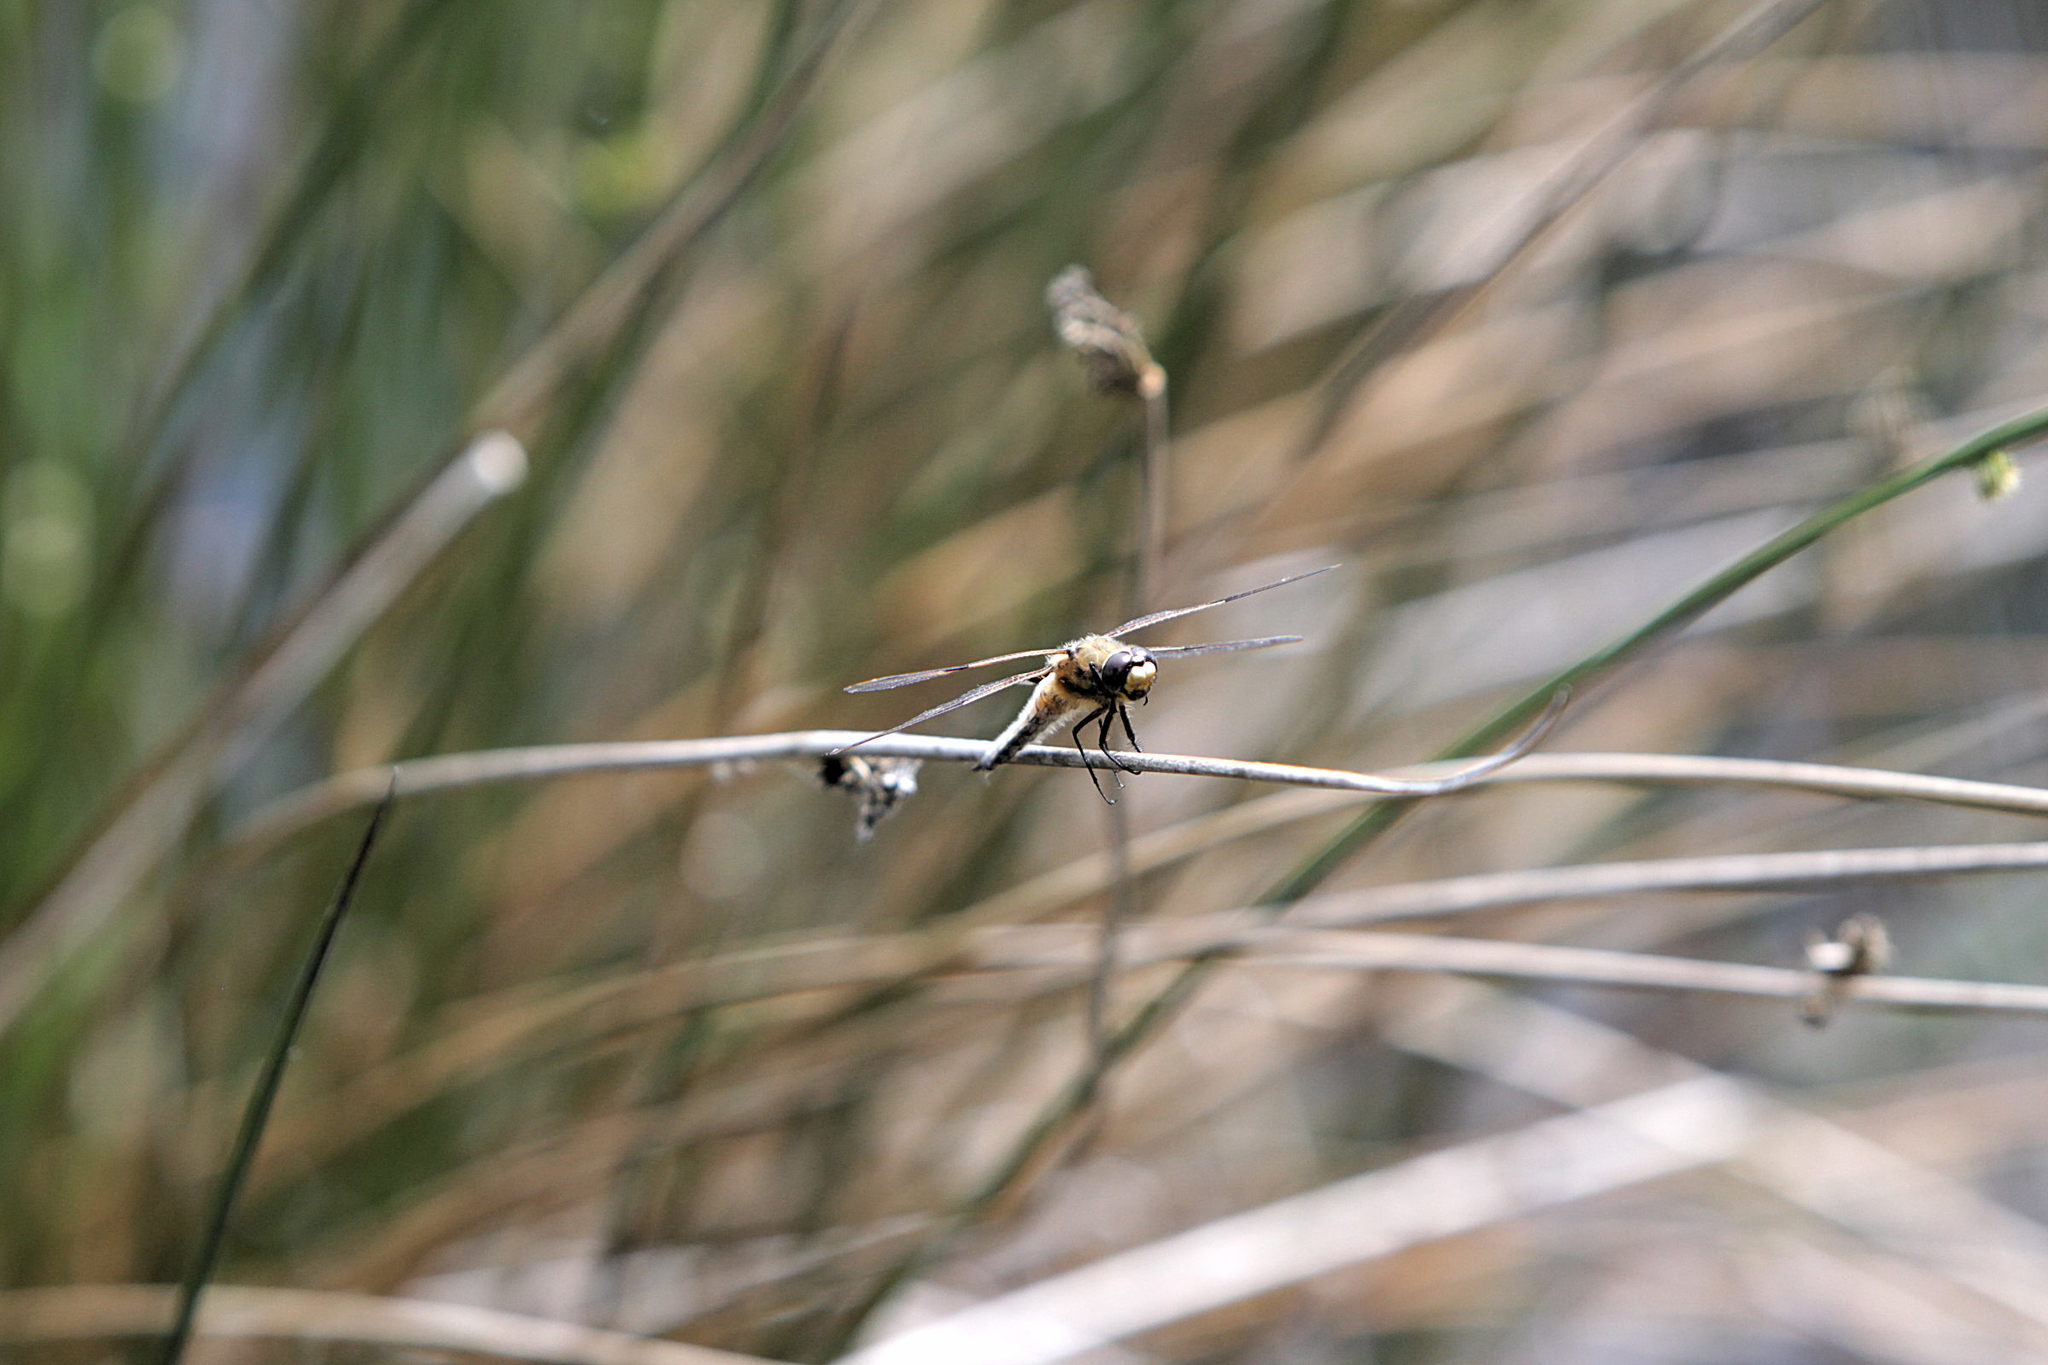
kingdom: Animalia
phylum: Arthropoda
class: Insecta
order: Odonata
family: Libellulidae
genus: Libellula
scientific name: Libellula quadrimaculata
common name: Four-spotted chaser
